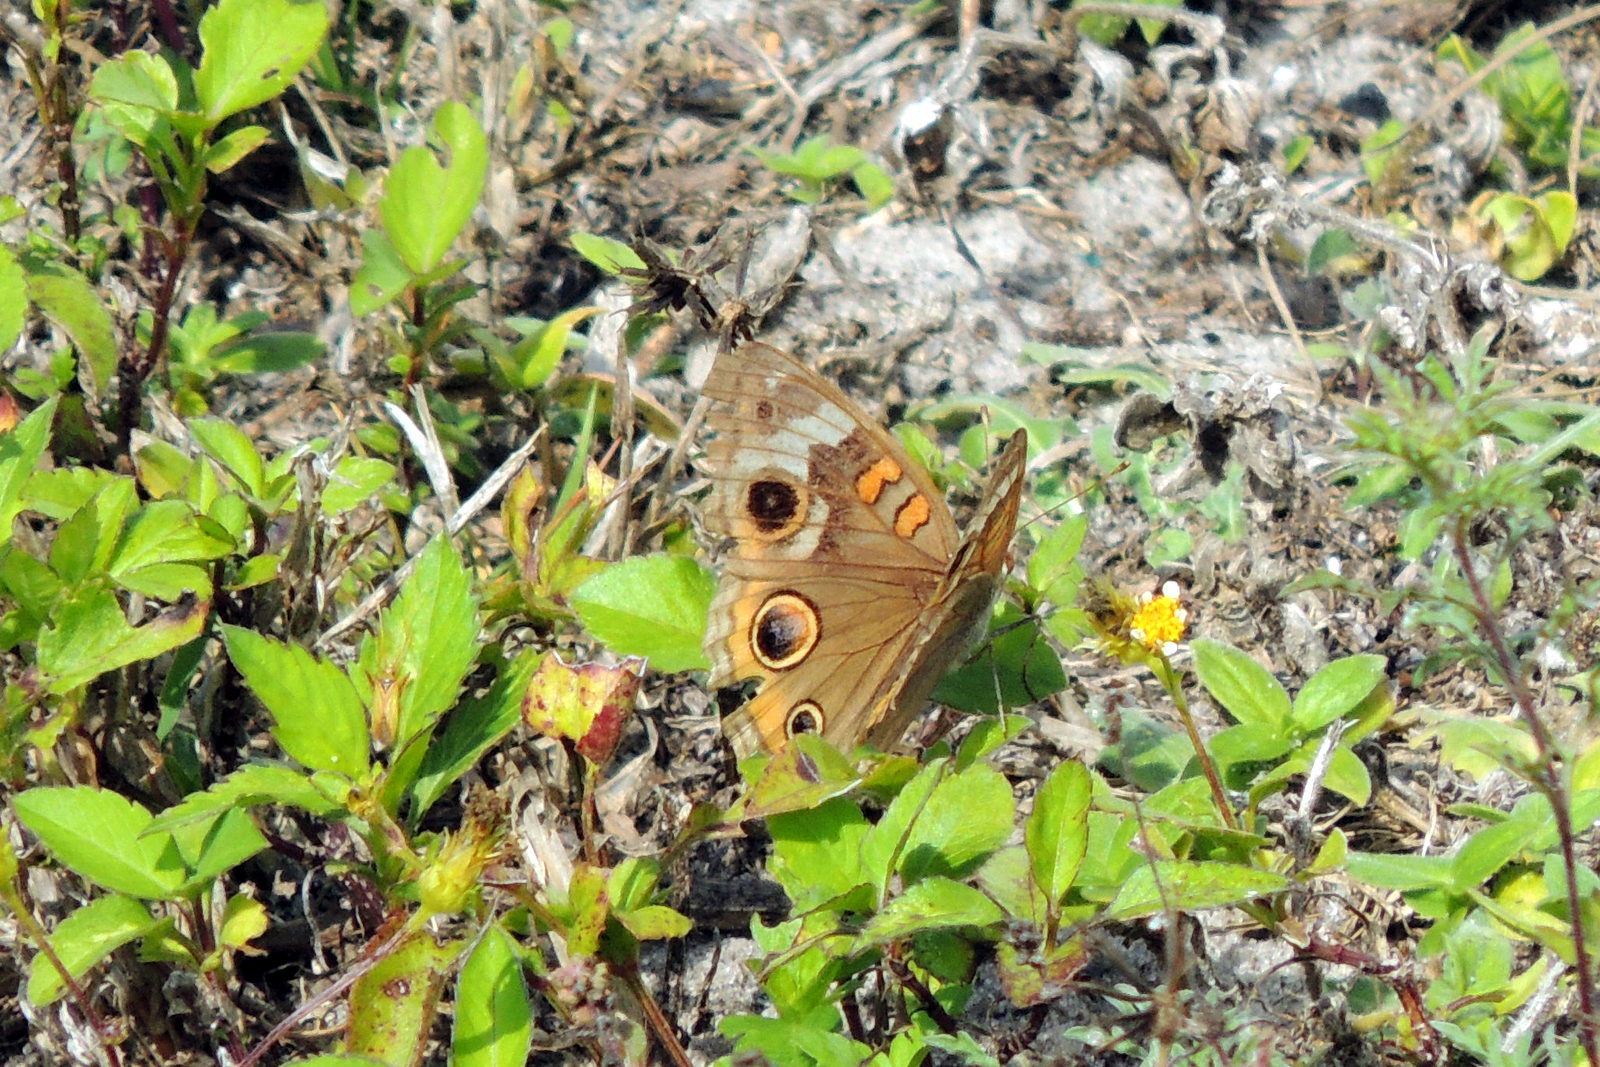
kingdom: Animalia
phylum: Arthropoda
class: Insecta
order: Lepidoptera
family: Nymphalidae
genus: Junonia
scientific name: Junonia coenia
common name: Common buckeye
